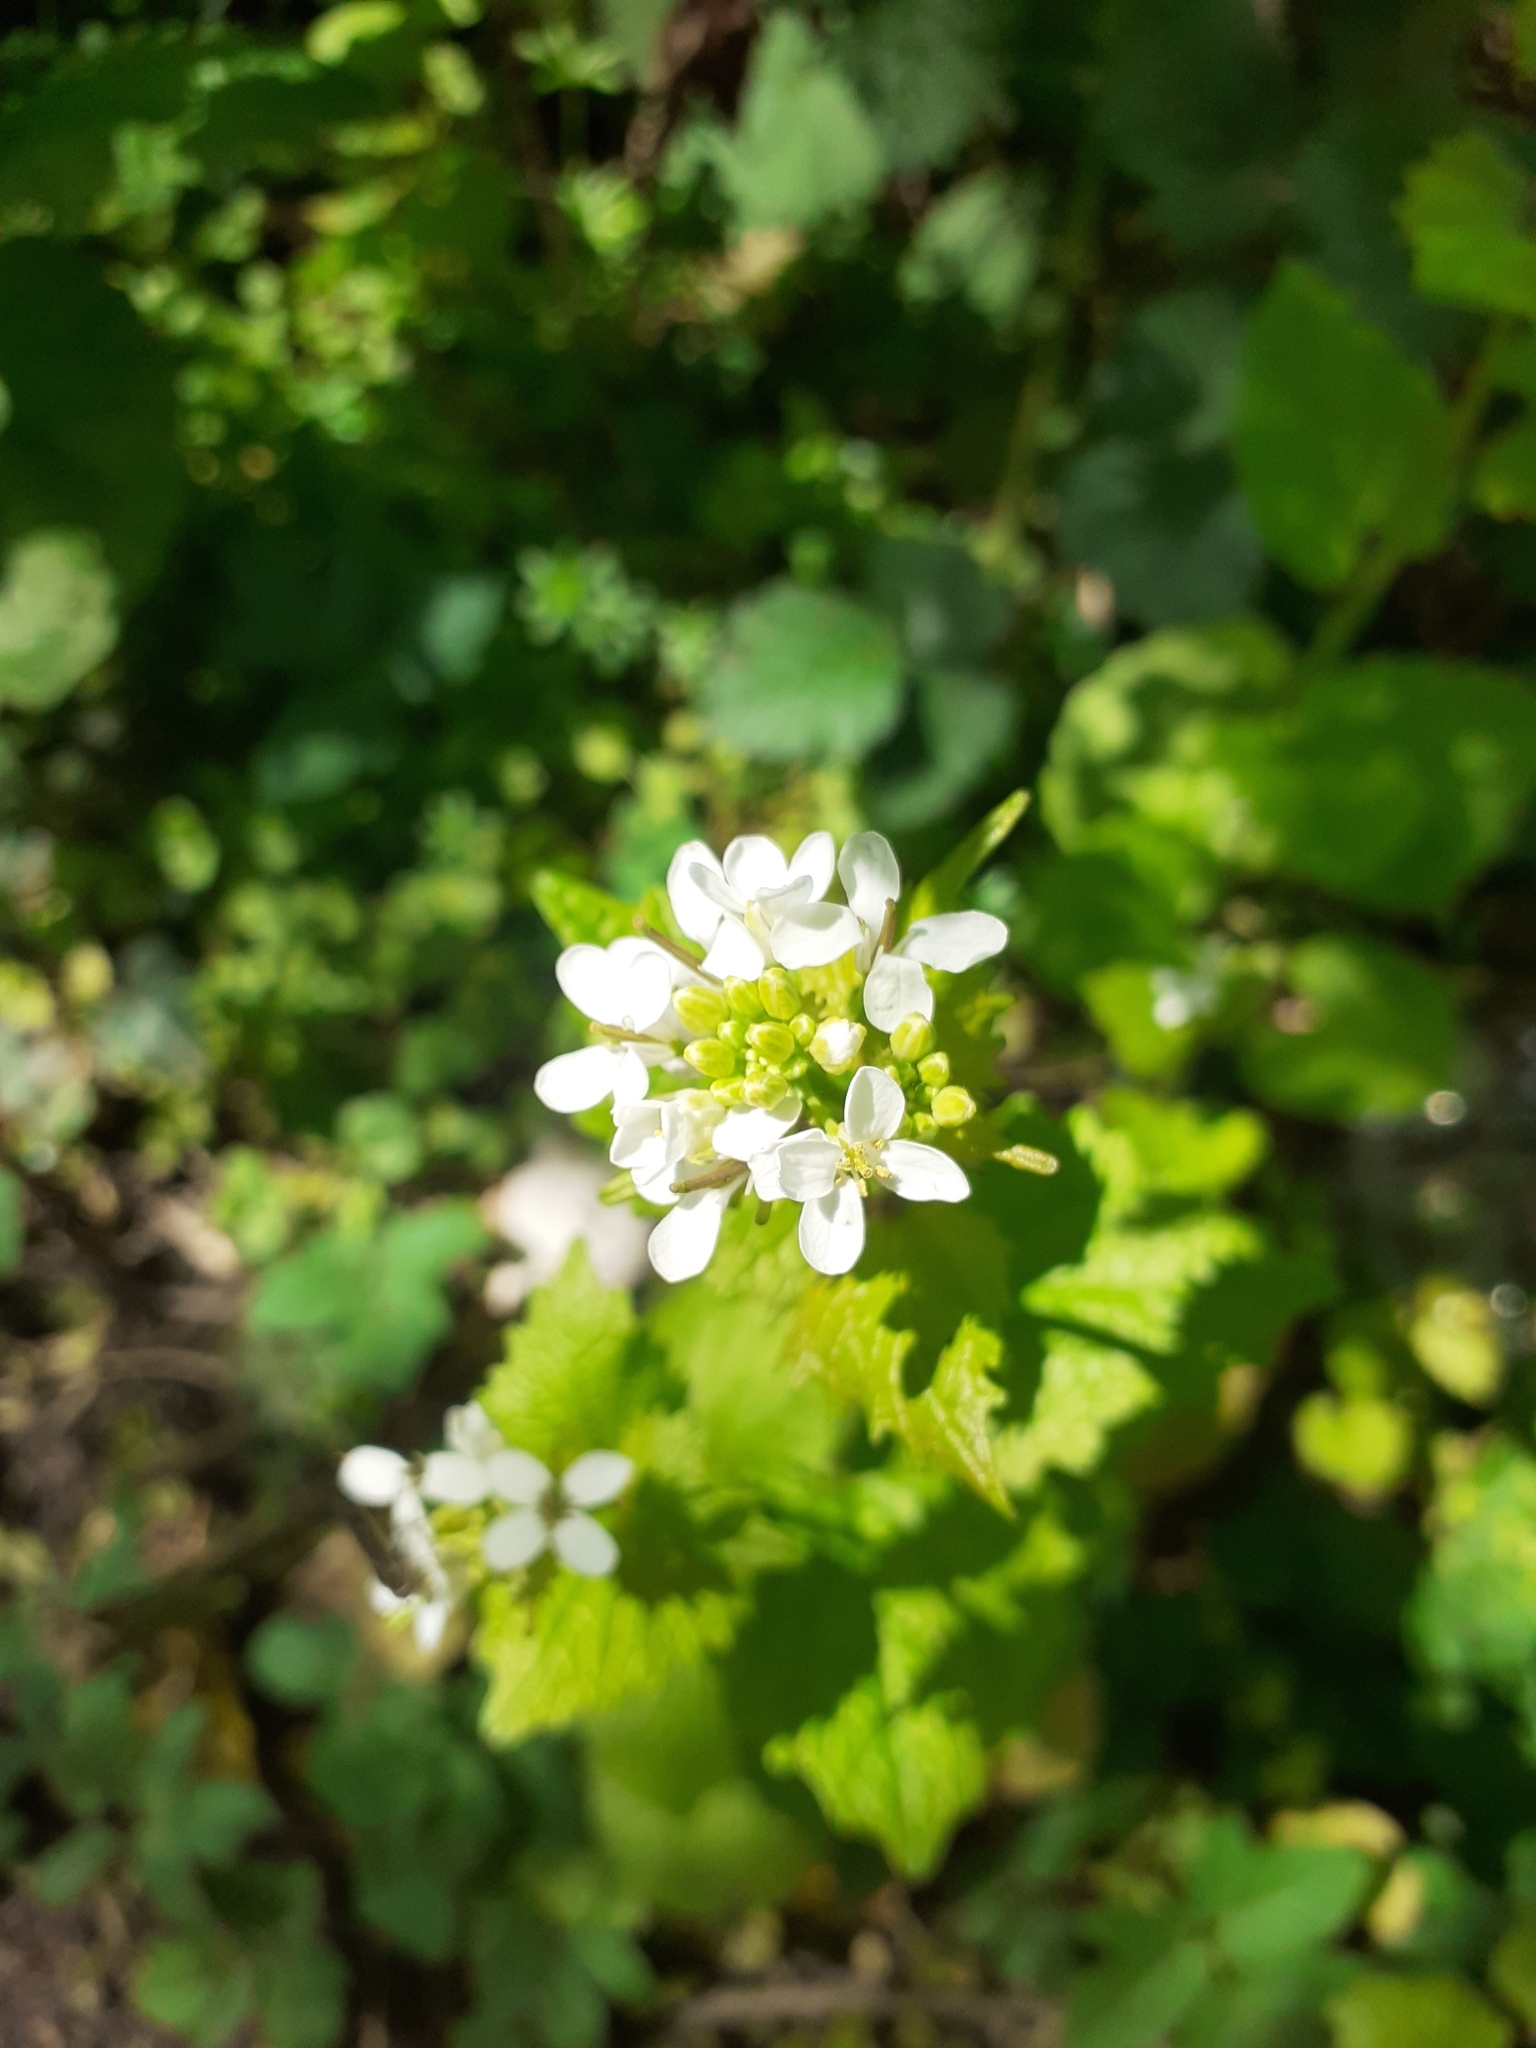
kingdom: Plantae
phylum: Tracheophyta
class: Magnoliopsida
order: Brassicales
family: Brassicaceae
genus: Alliaria
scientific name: Alliaria petiolata
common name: Garlic mustard
